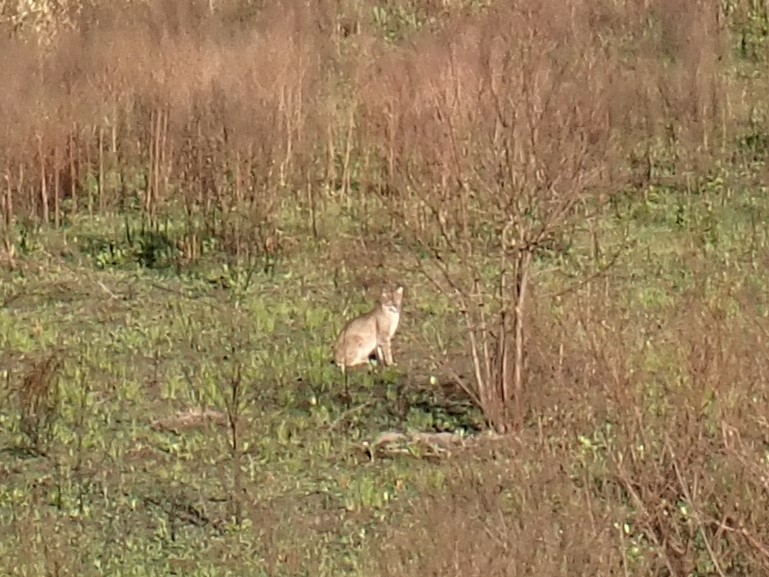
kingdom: Animalia
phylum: Chordata
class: Mammalia
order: Carnivora
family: Felidae
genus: Lynx
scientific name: Lynx rufus
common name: Bobcat
